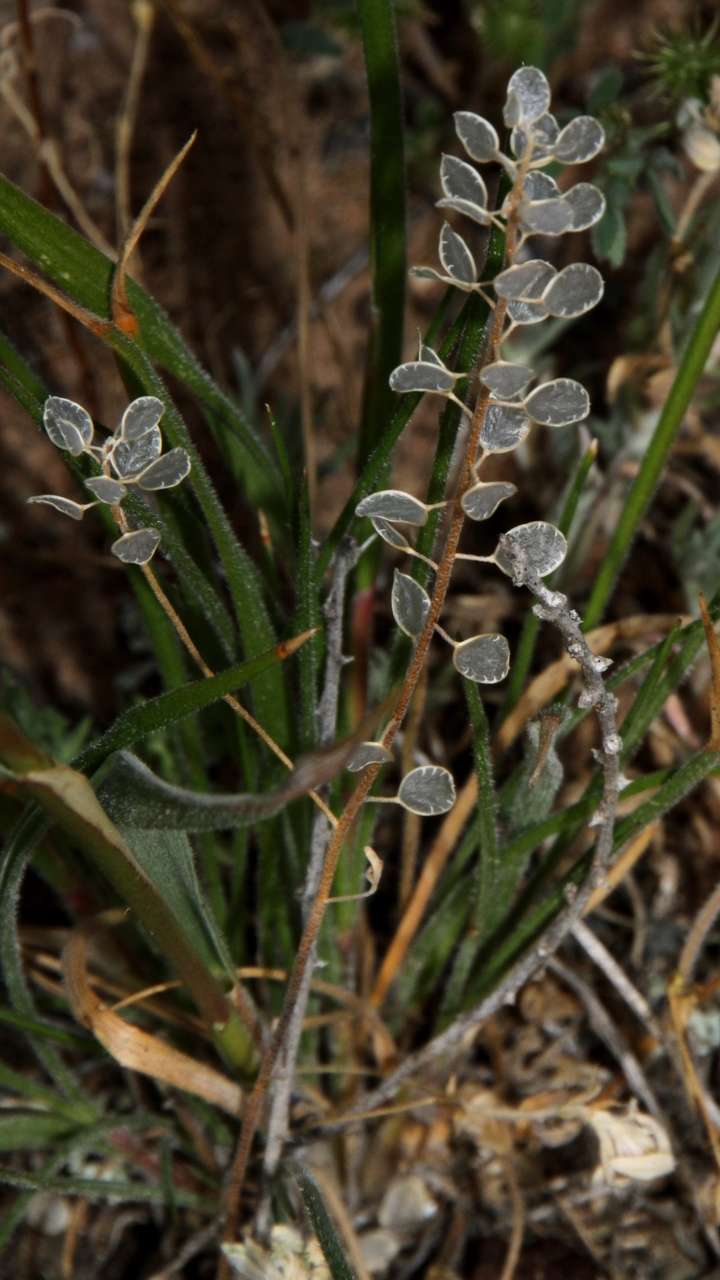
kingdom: Plantae
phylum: Tracheophyta
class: Magnoliopsida
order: Brassicales
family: Brassicaceae
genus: Meniocus
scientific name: Meniocus linifolius
